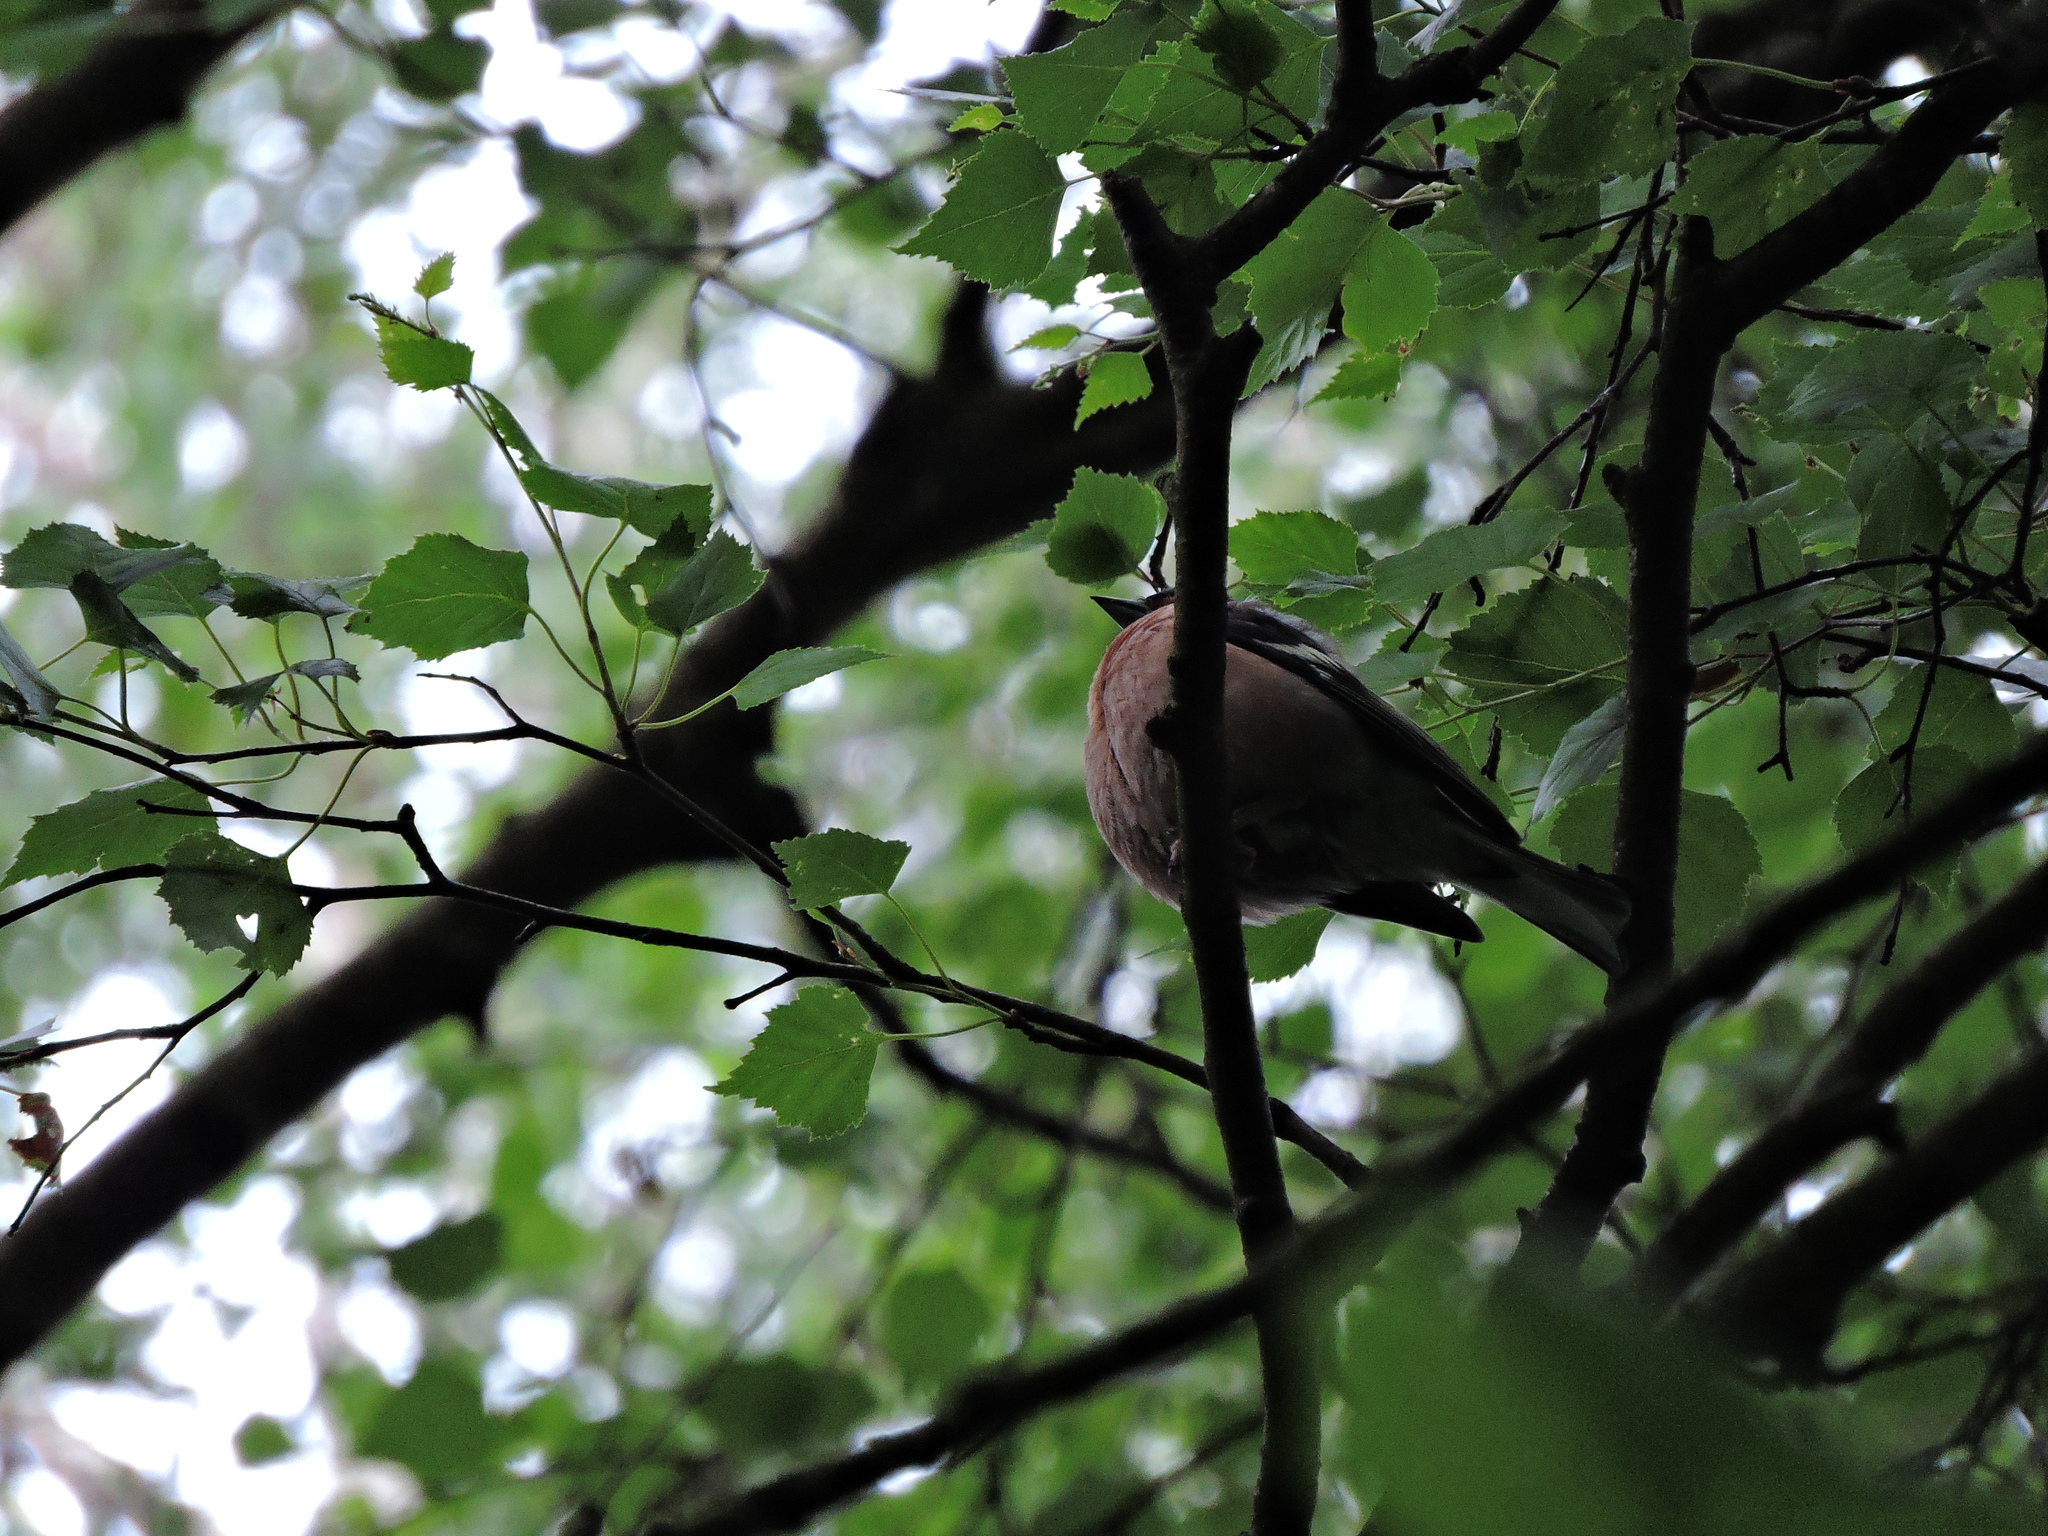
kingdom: Animalia
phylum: Chordata
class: Aves
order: Passeriformes
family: Fringillidae
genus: Fringilla
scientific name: Fringilla coelebs
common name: Common chaffinch
